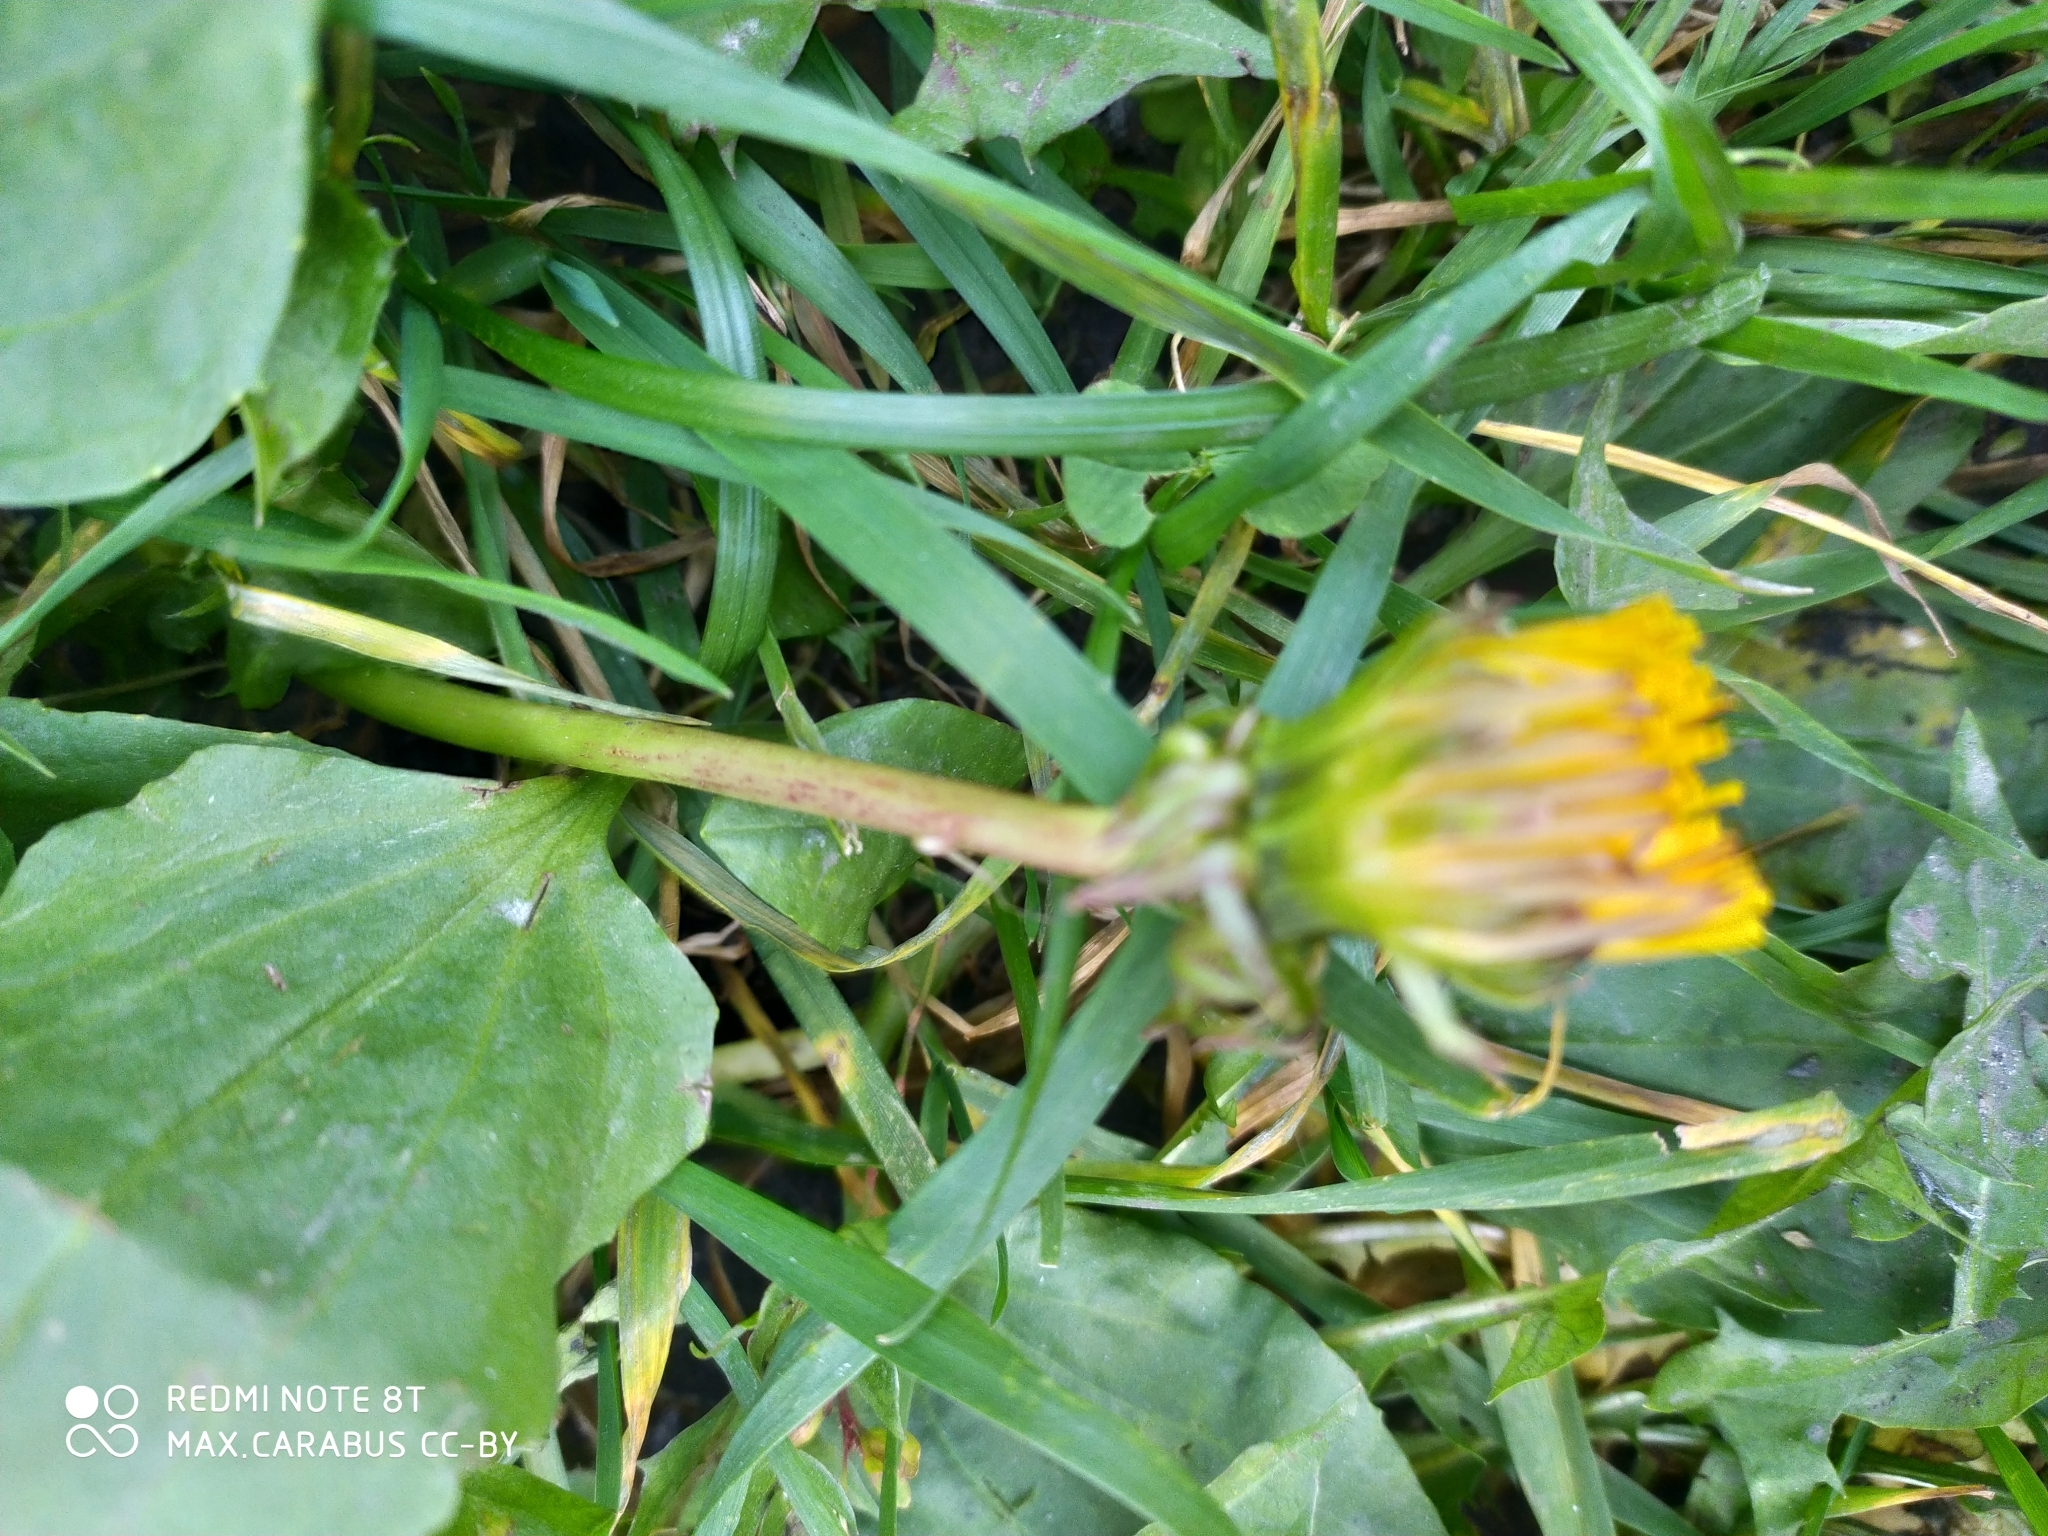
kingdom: Plantae
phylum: Tracheophyta
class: Magnoliopsida
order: Asterales
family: Asteraceae
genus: Taraxacum
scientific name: Taraxacum officinale
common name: Common dandelion
